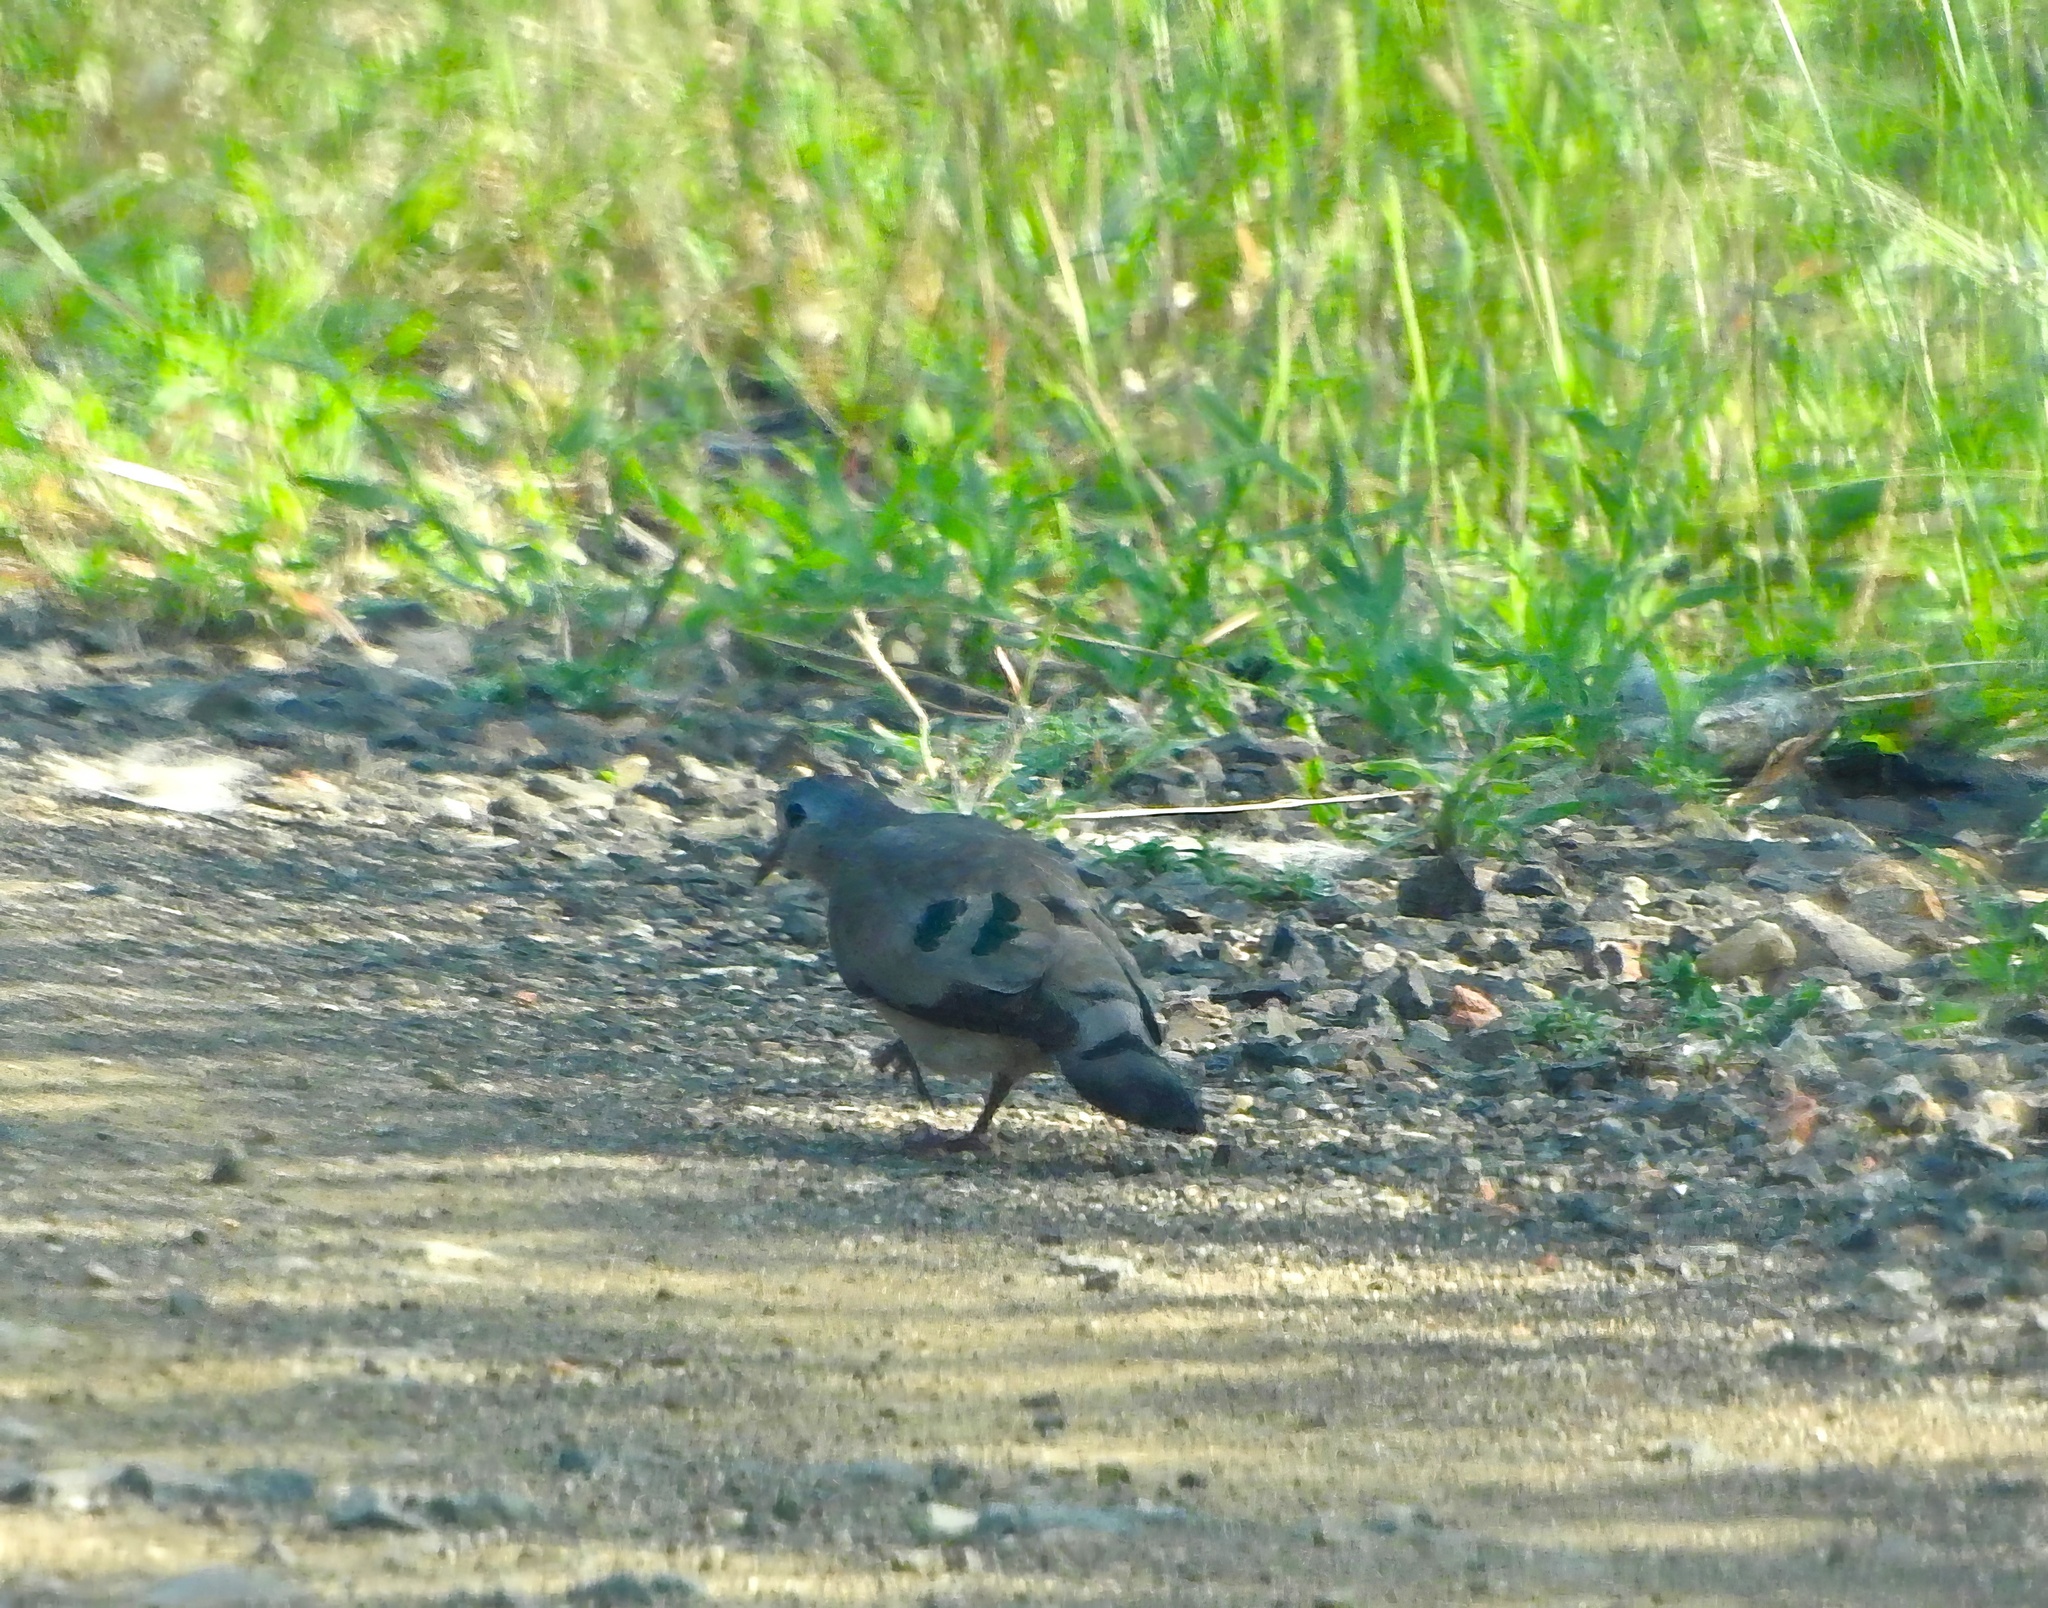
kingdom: Animalia
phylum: Chordata
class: Aves
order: Columbiformes
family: Columbidae
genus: Turtur
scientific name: Turtur chalcospilos
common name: Emerald-spotted wood dove
